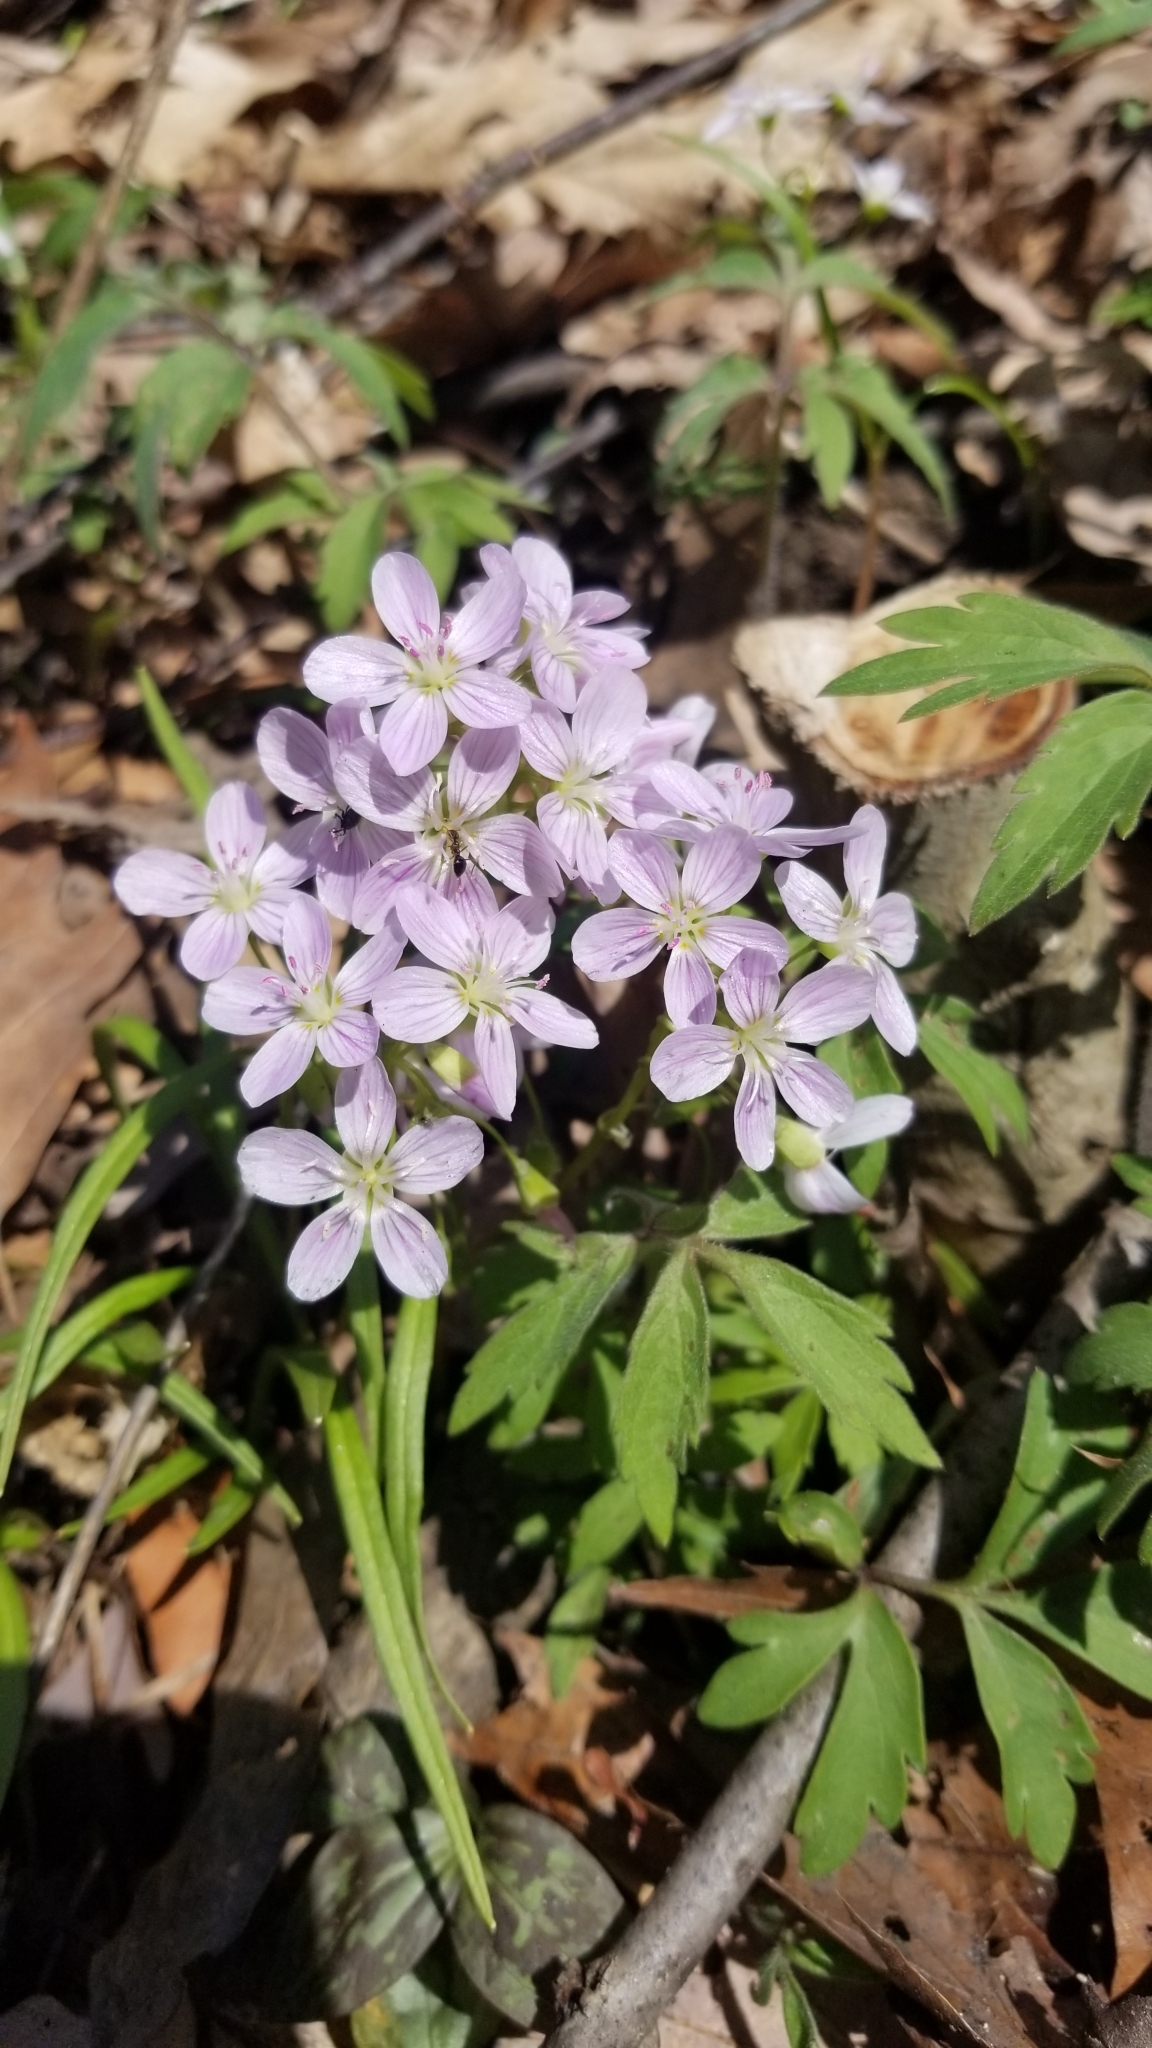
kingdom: Plantae
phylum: Tracheophyta
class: Magnoliopsida
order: Caryophyllales
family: Montiaceae
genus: Claytonia
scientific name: Claytonia virginica
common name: Virginia springbeauty
